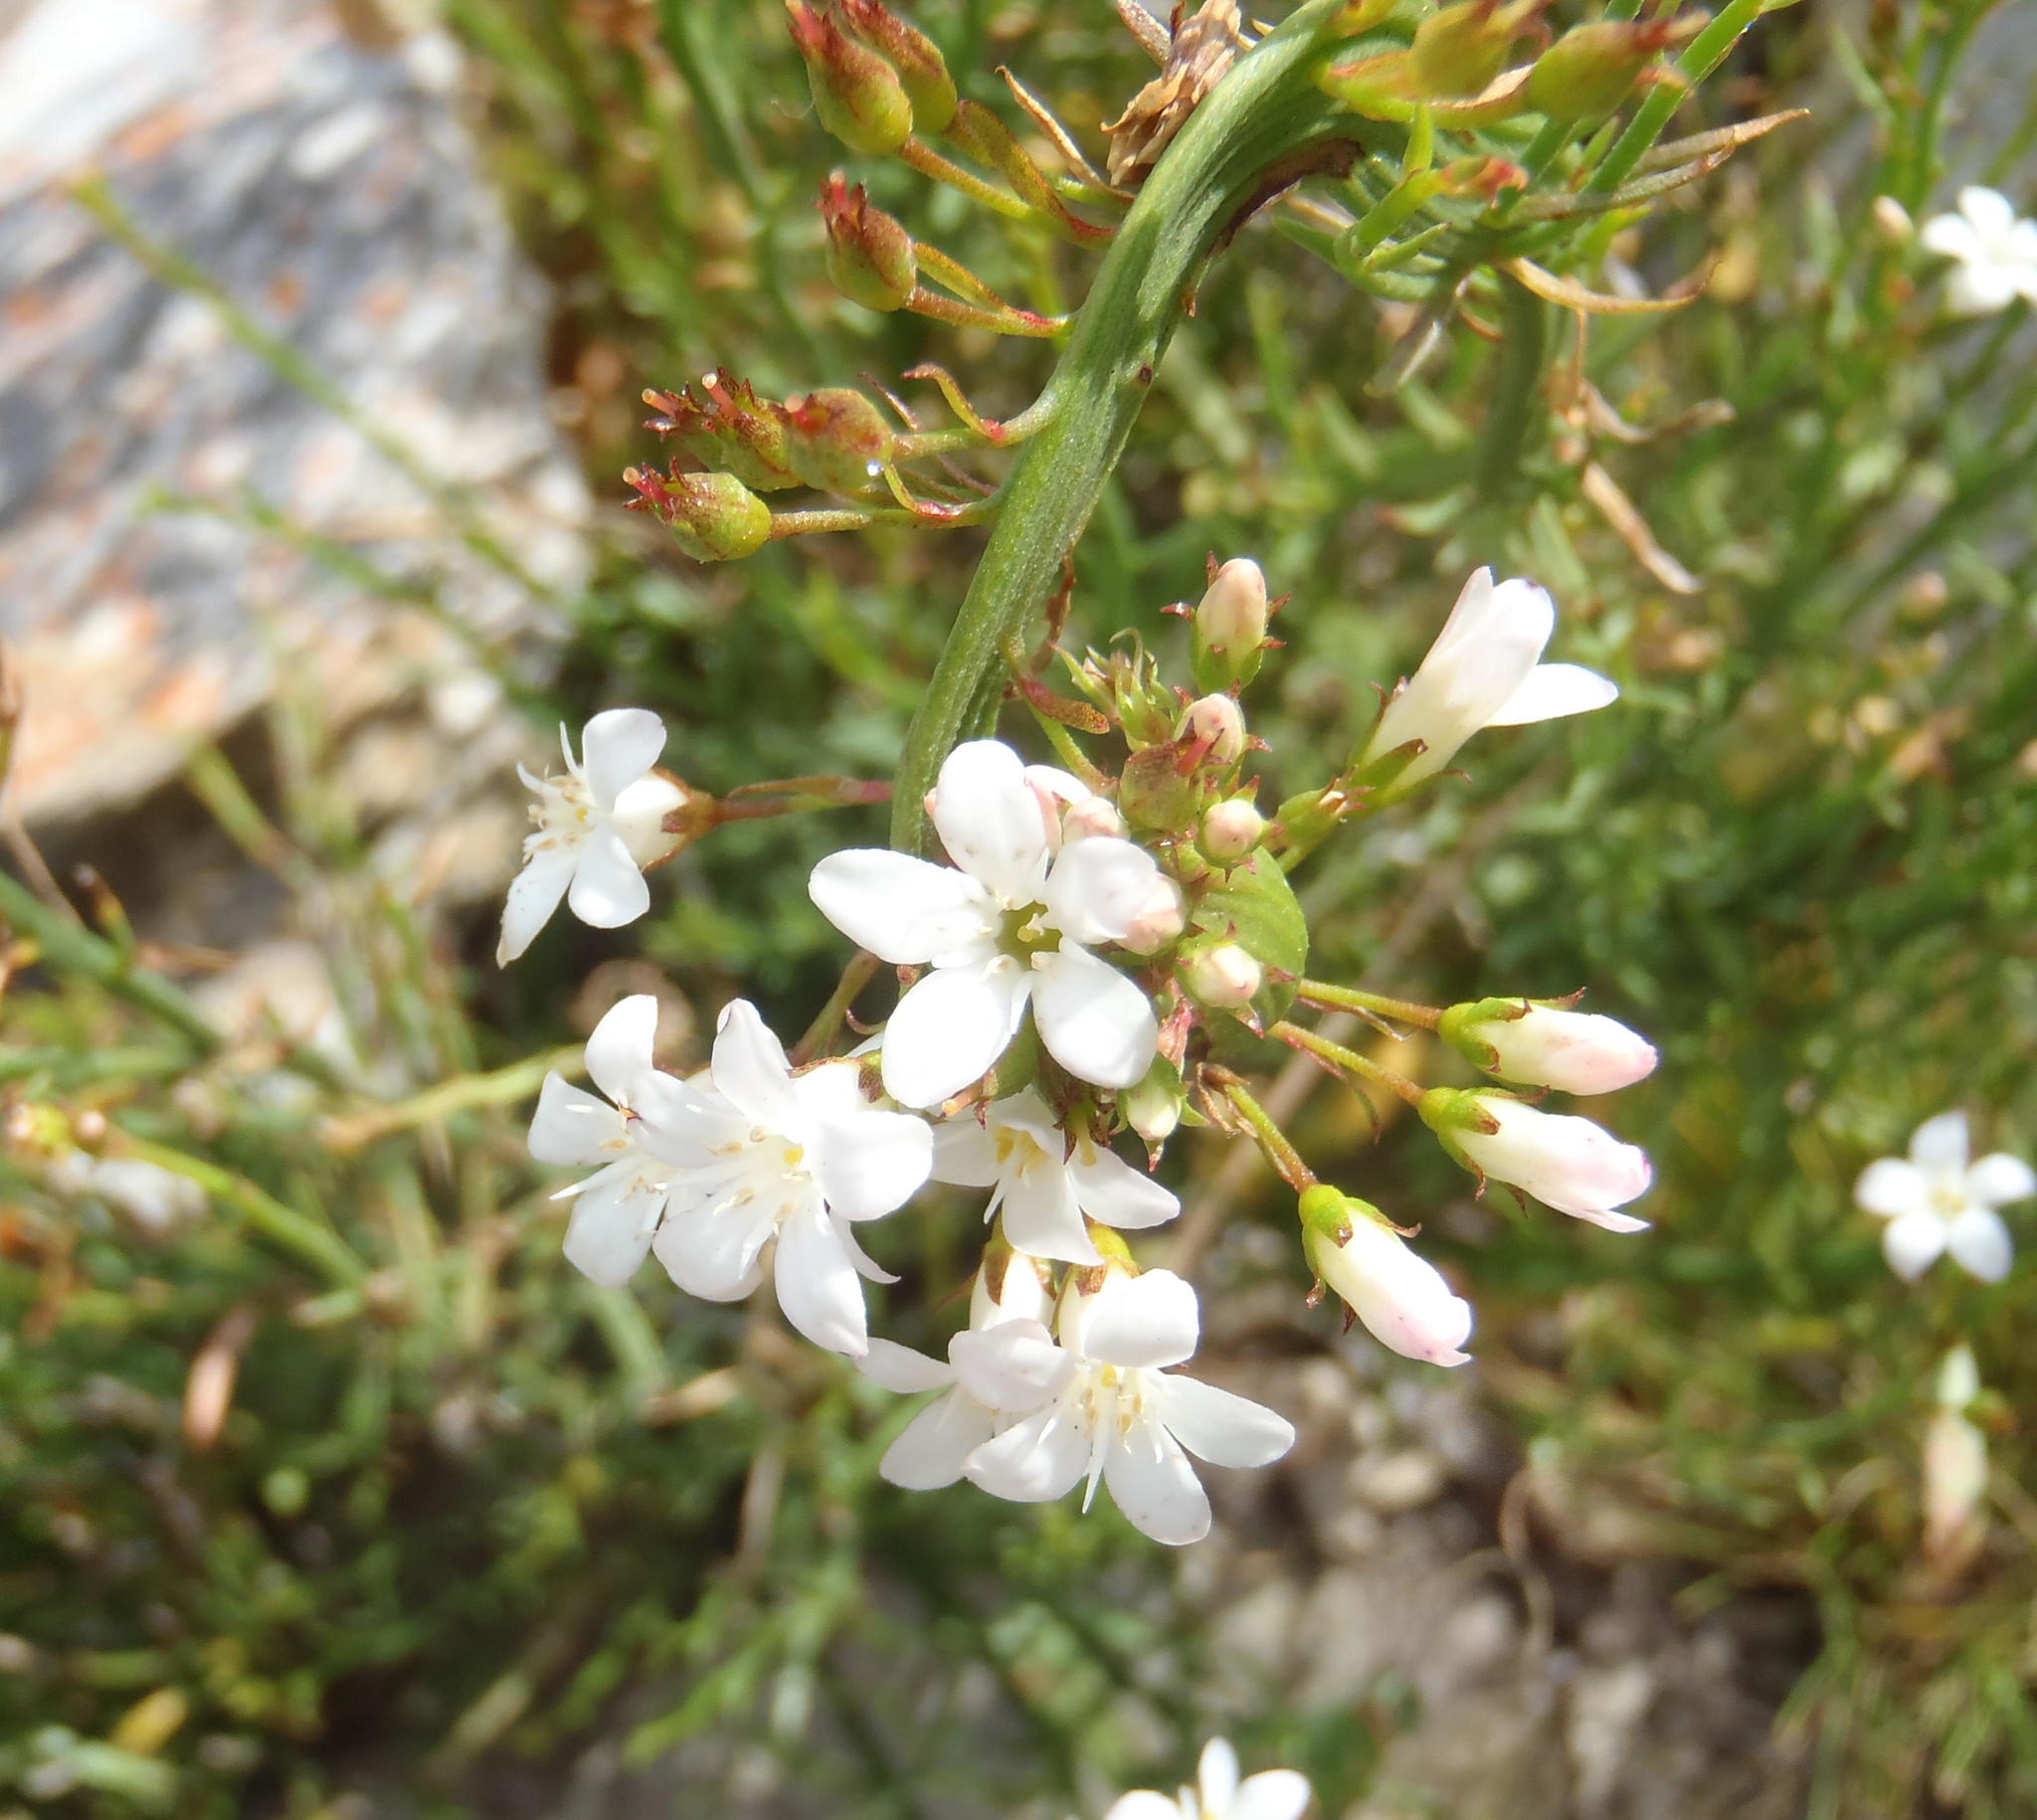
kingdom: Plantae
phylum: Tracheophyta
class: Magnoliopsida
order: Ericales
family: Primulaceae
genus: Samolus
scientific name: Samolus porosus
